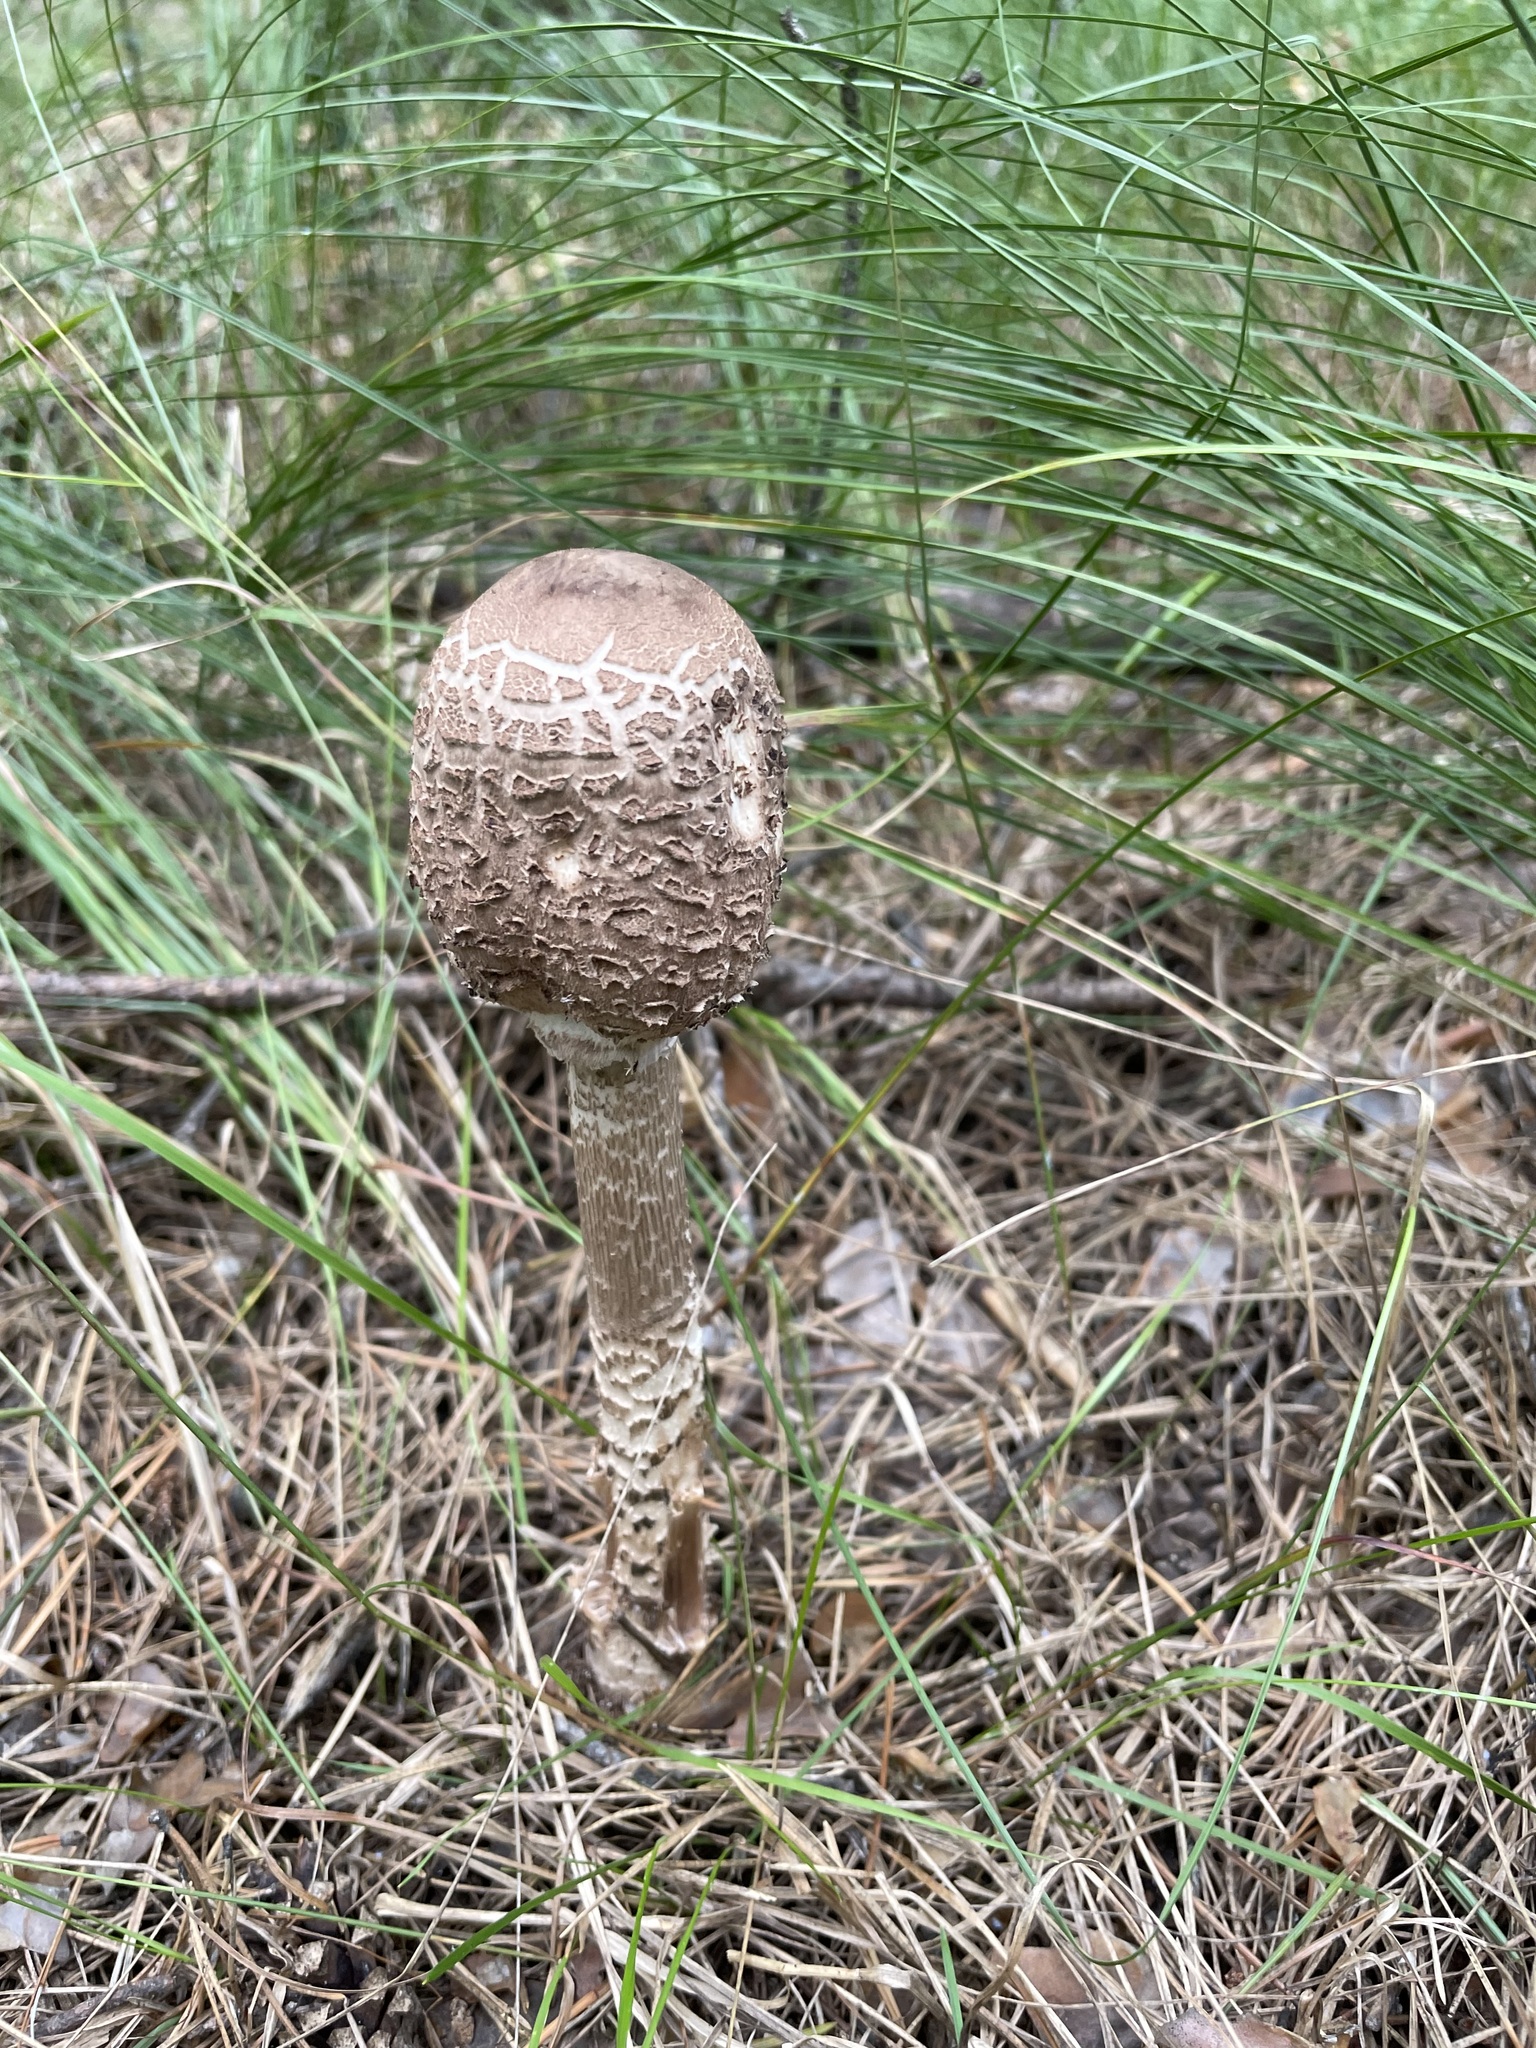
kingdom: Fungi
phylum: Basidiomycota
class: Agaricomycetes
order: Agaricales
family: Agaricaceae
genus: Macrolepiota
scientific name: Macrolepiota procera
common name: Parasol
